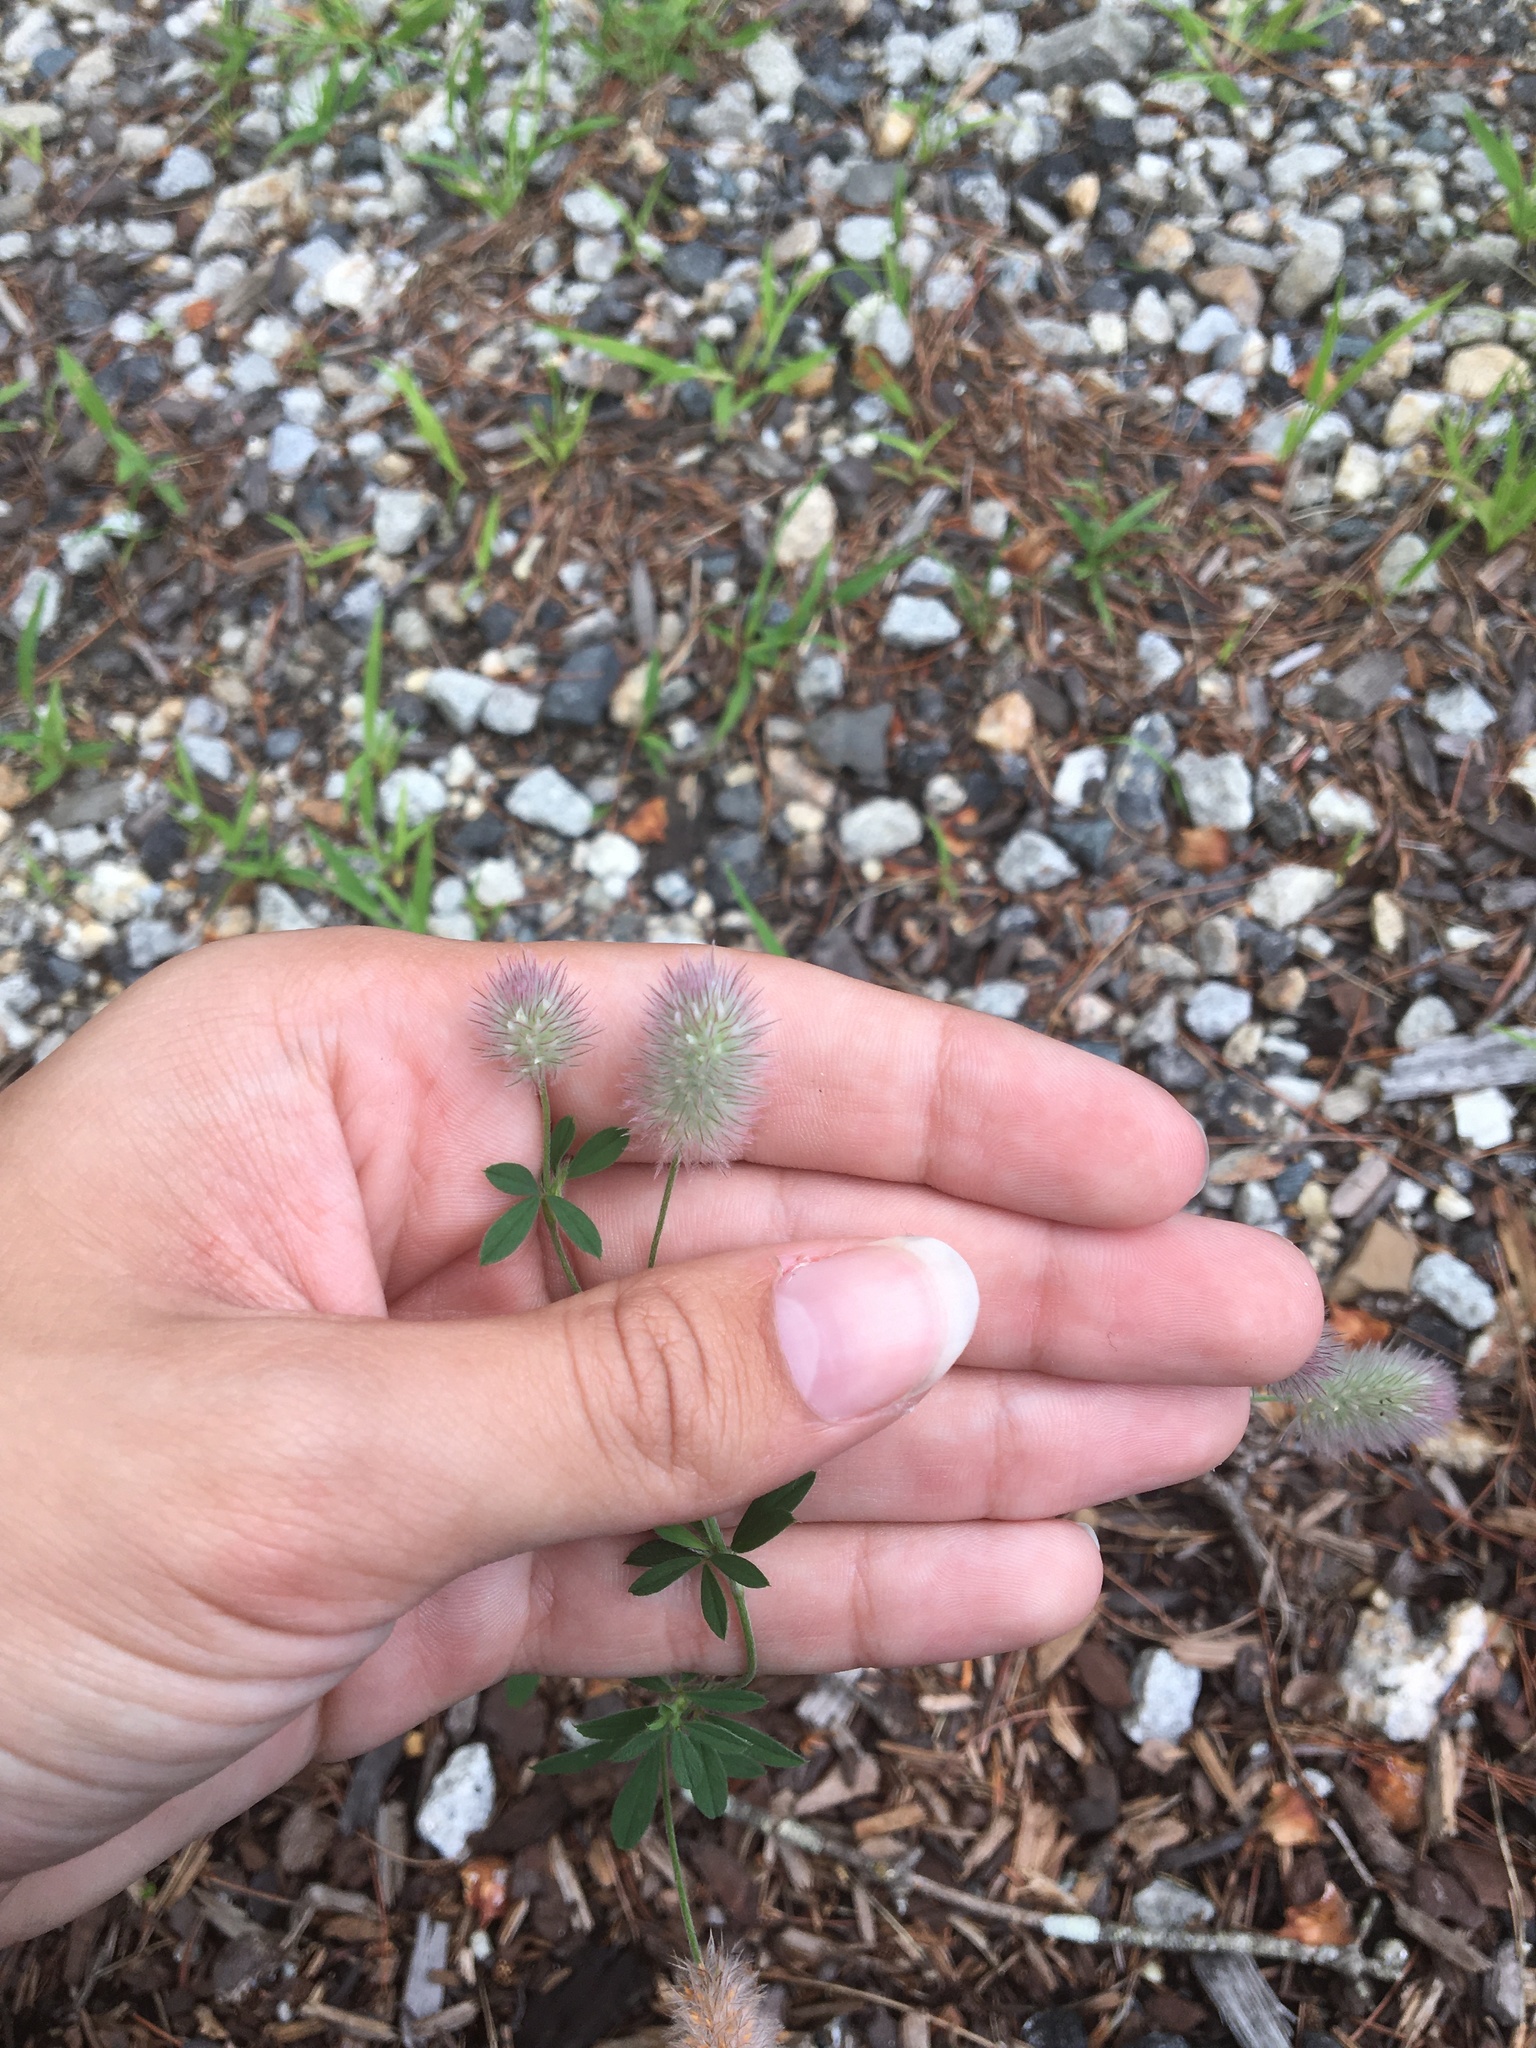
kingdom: Plantae
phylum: Tracheophyta
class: Magnoliopsida
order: Fabales
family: Fabaceae
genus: Trifolium
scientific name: Trifolium arvense
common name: Hare's-foot clover
